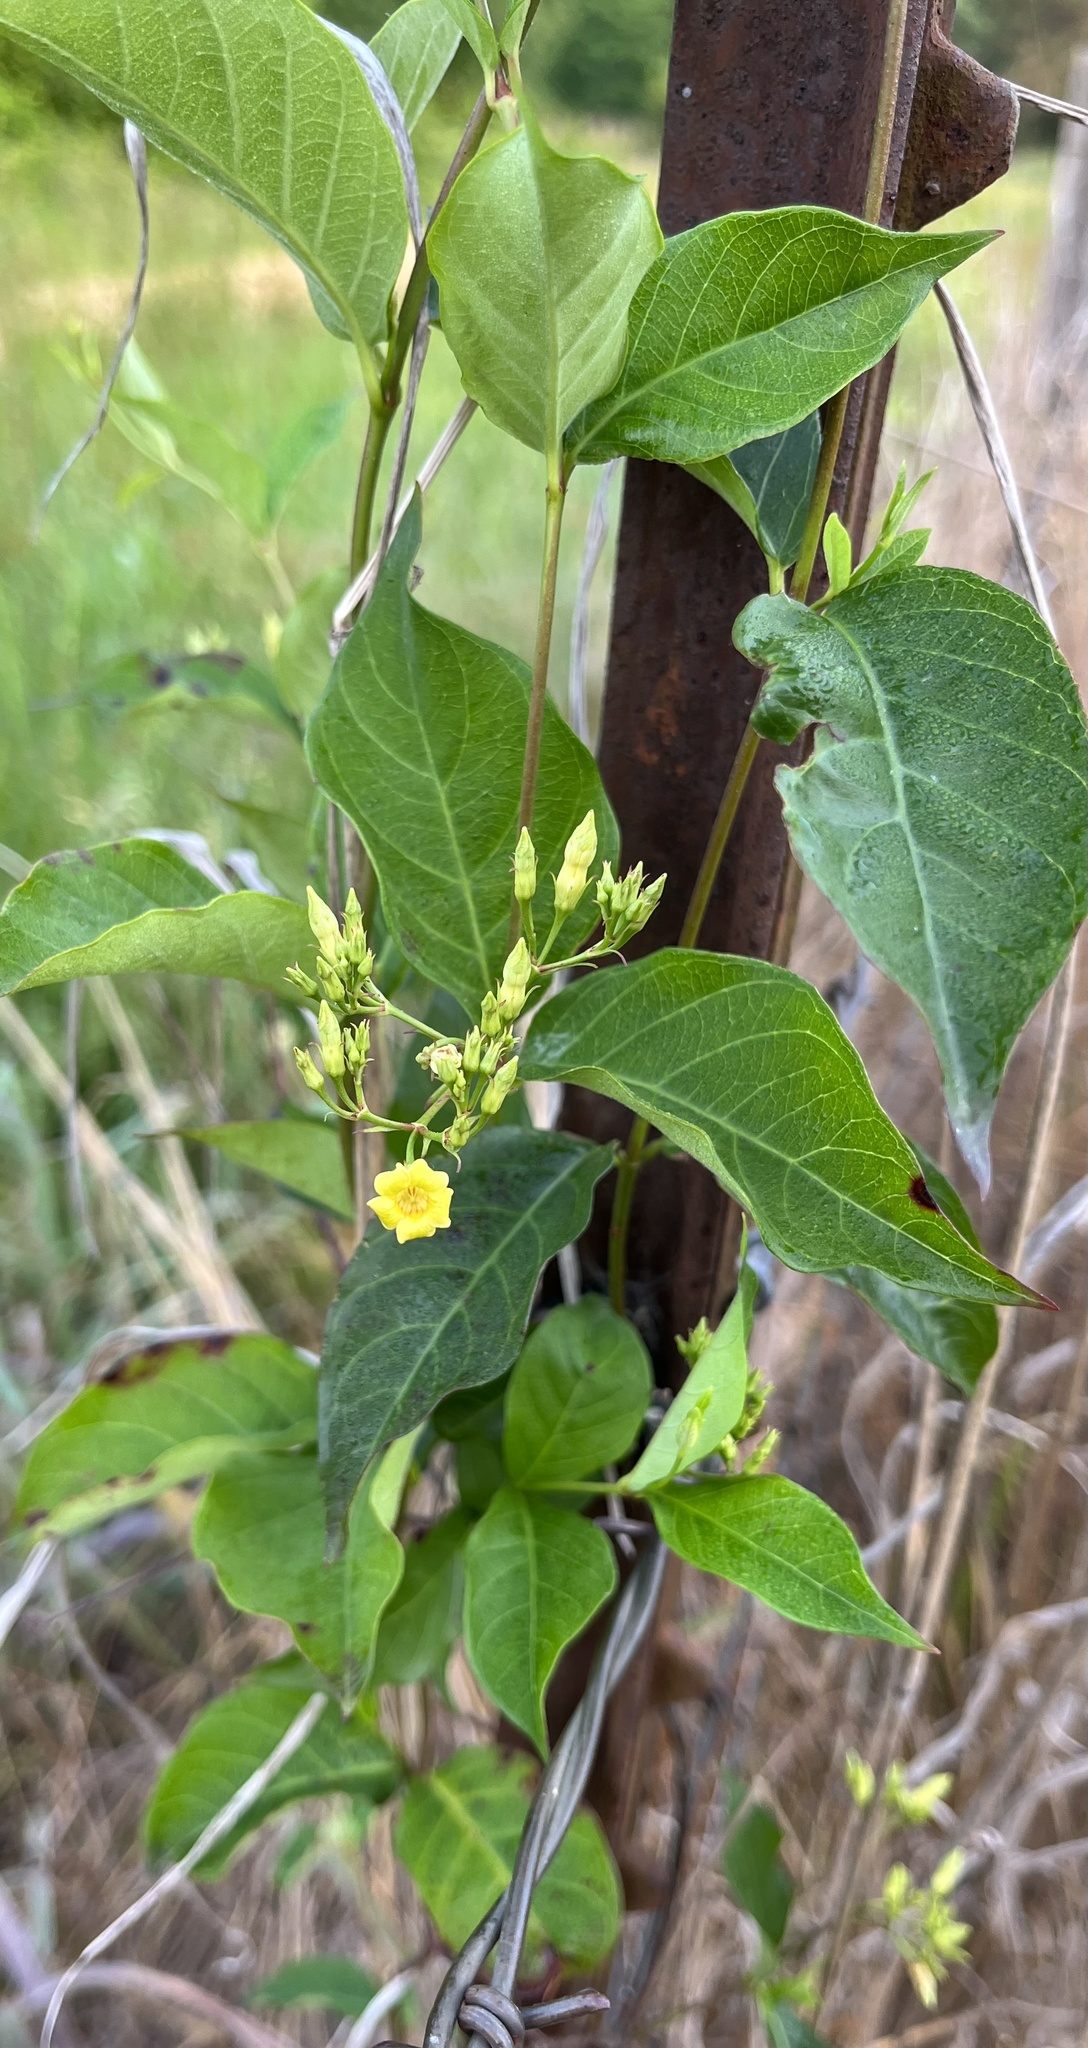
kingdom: Plantae
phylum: Tracheophyta
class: Magnoliopsida
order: Gentianales
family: Apocynaceae
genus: Thyrsanthella
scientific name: Thyrsanthella difformis
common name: Climbing dogbane
